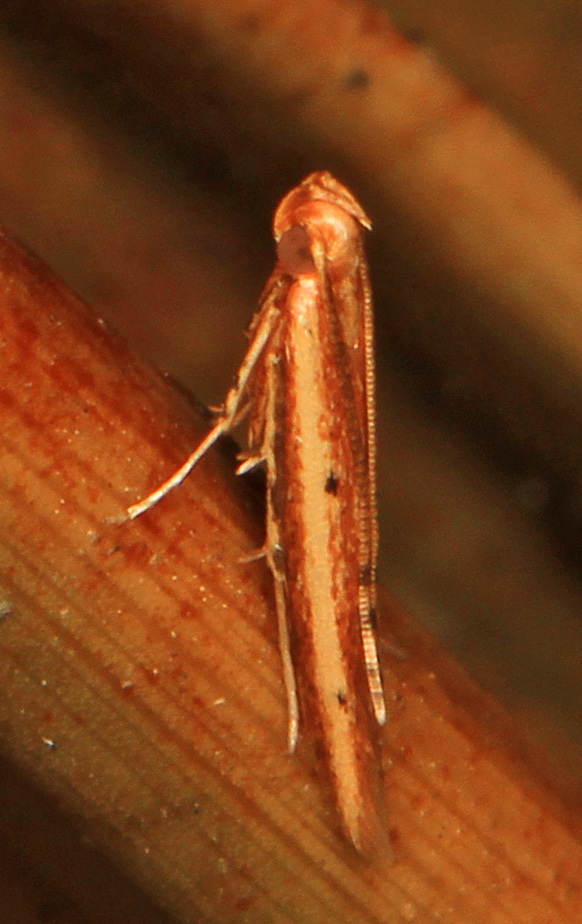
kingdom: Animalia
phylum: Arthropoda
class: Insecta
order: Lepidoptera
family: Batrachedridae
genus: Batrachedra
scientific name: Batrachedra busiris
